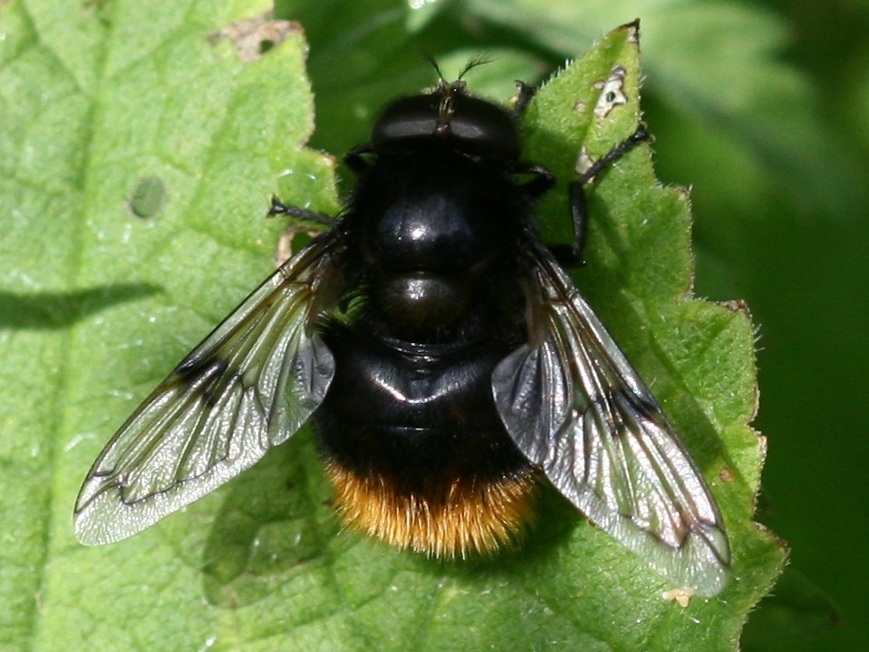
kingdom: Animalia
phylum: Arthropoda
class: Insecta
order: Diptera
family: Syrphidae
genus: Volucella
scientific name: Volucella bombylans
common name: Bumble bee hover fly
